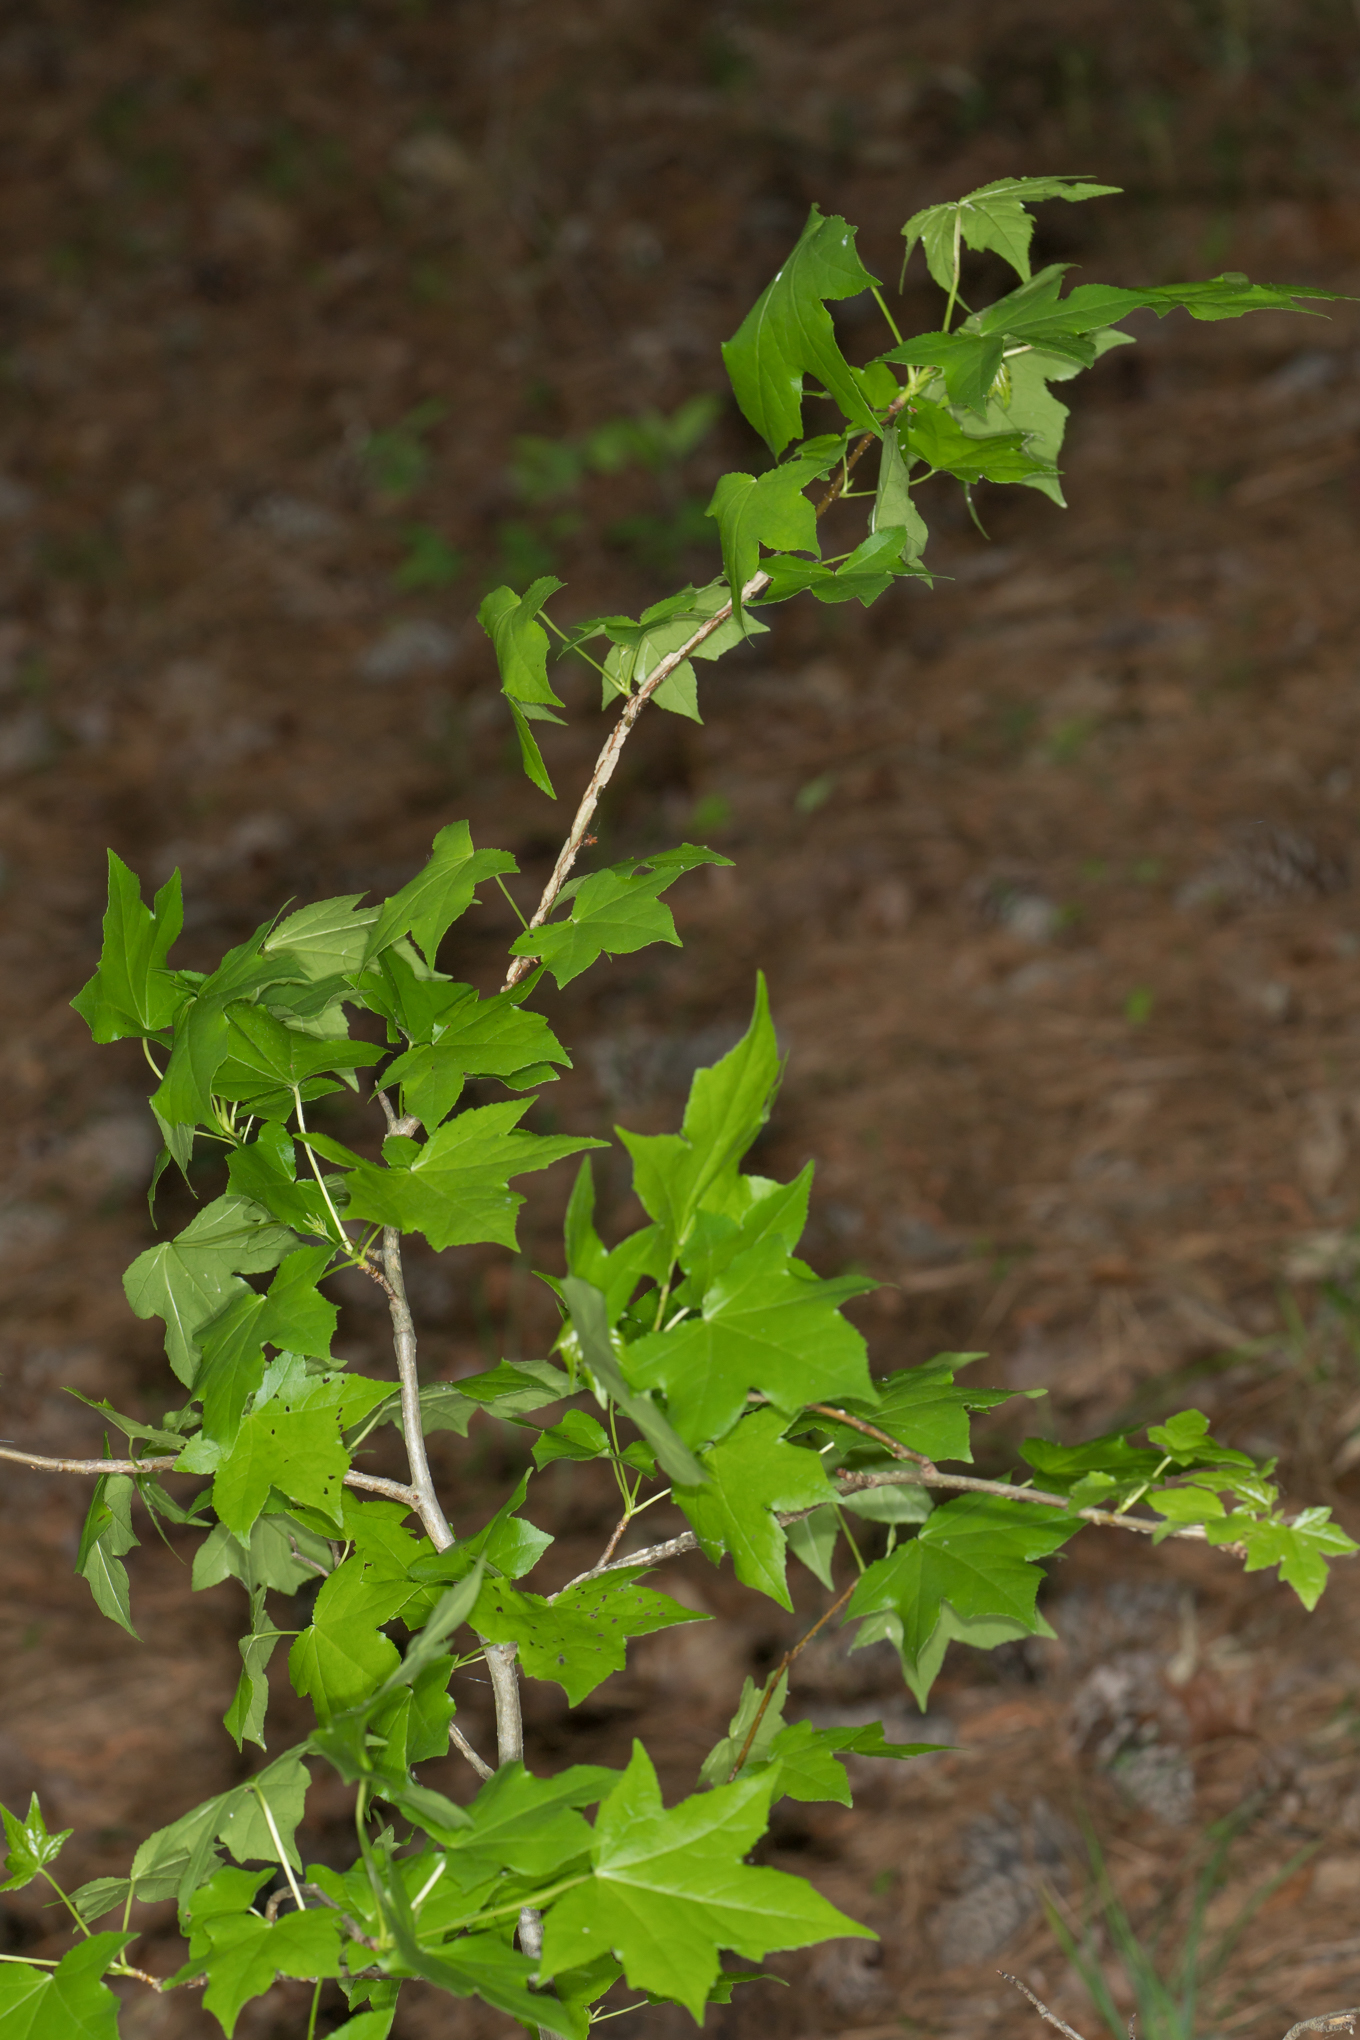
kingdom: Plantae
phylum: Tracheophyta
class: Magnoliopsida
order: Saxifragales
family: Altingiaceae
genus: Liquidambar
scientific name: Liquidambar styraciflua
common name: Sweet gum
